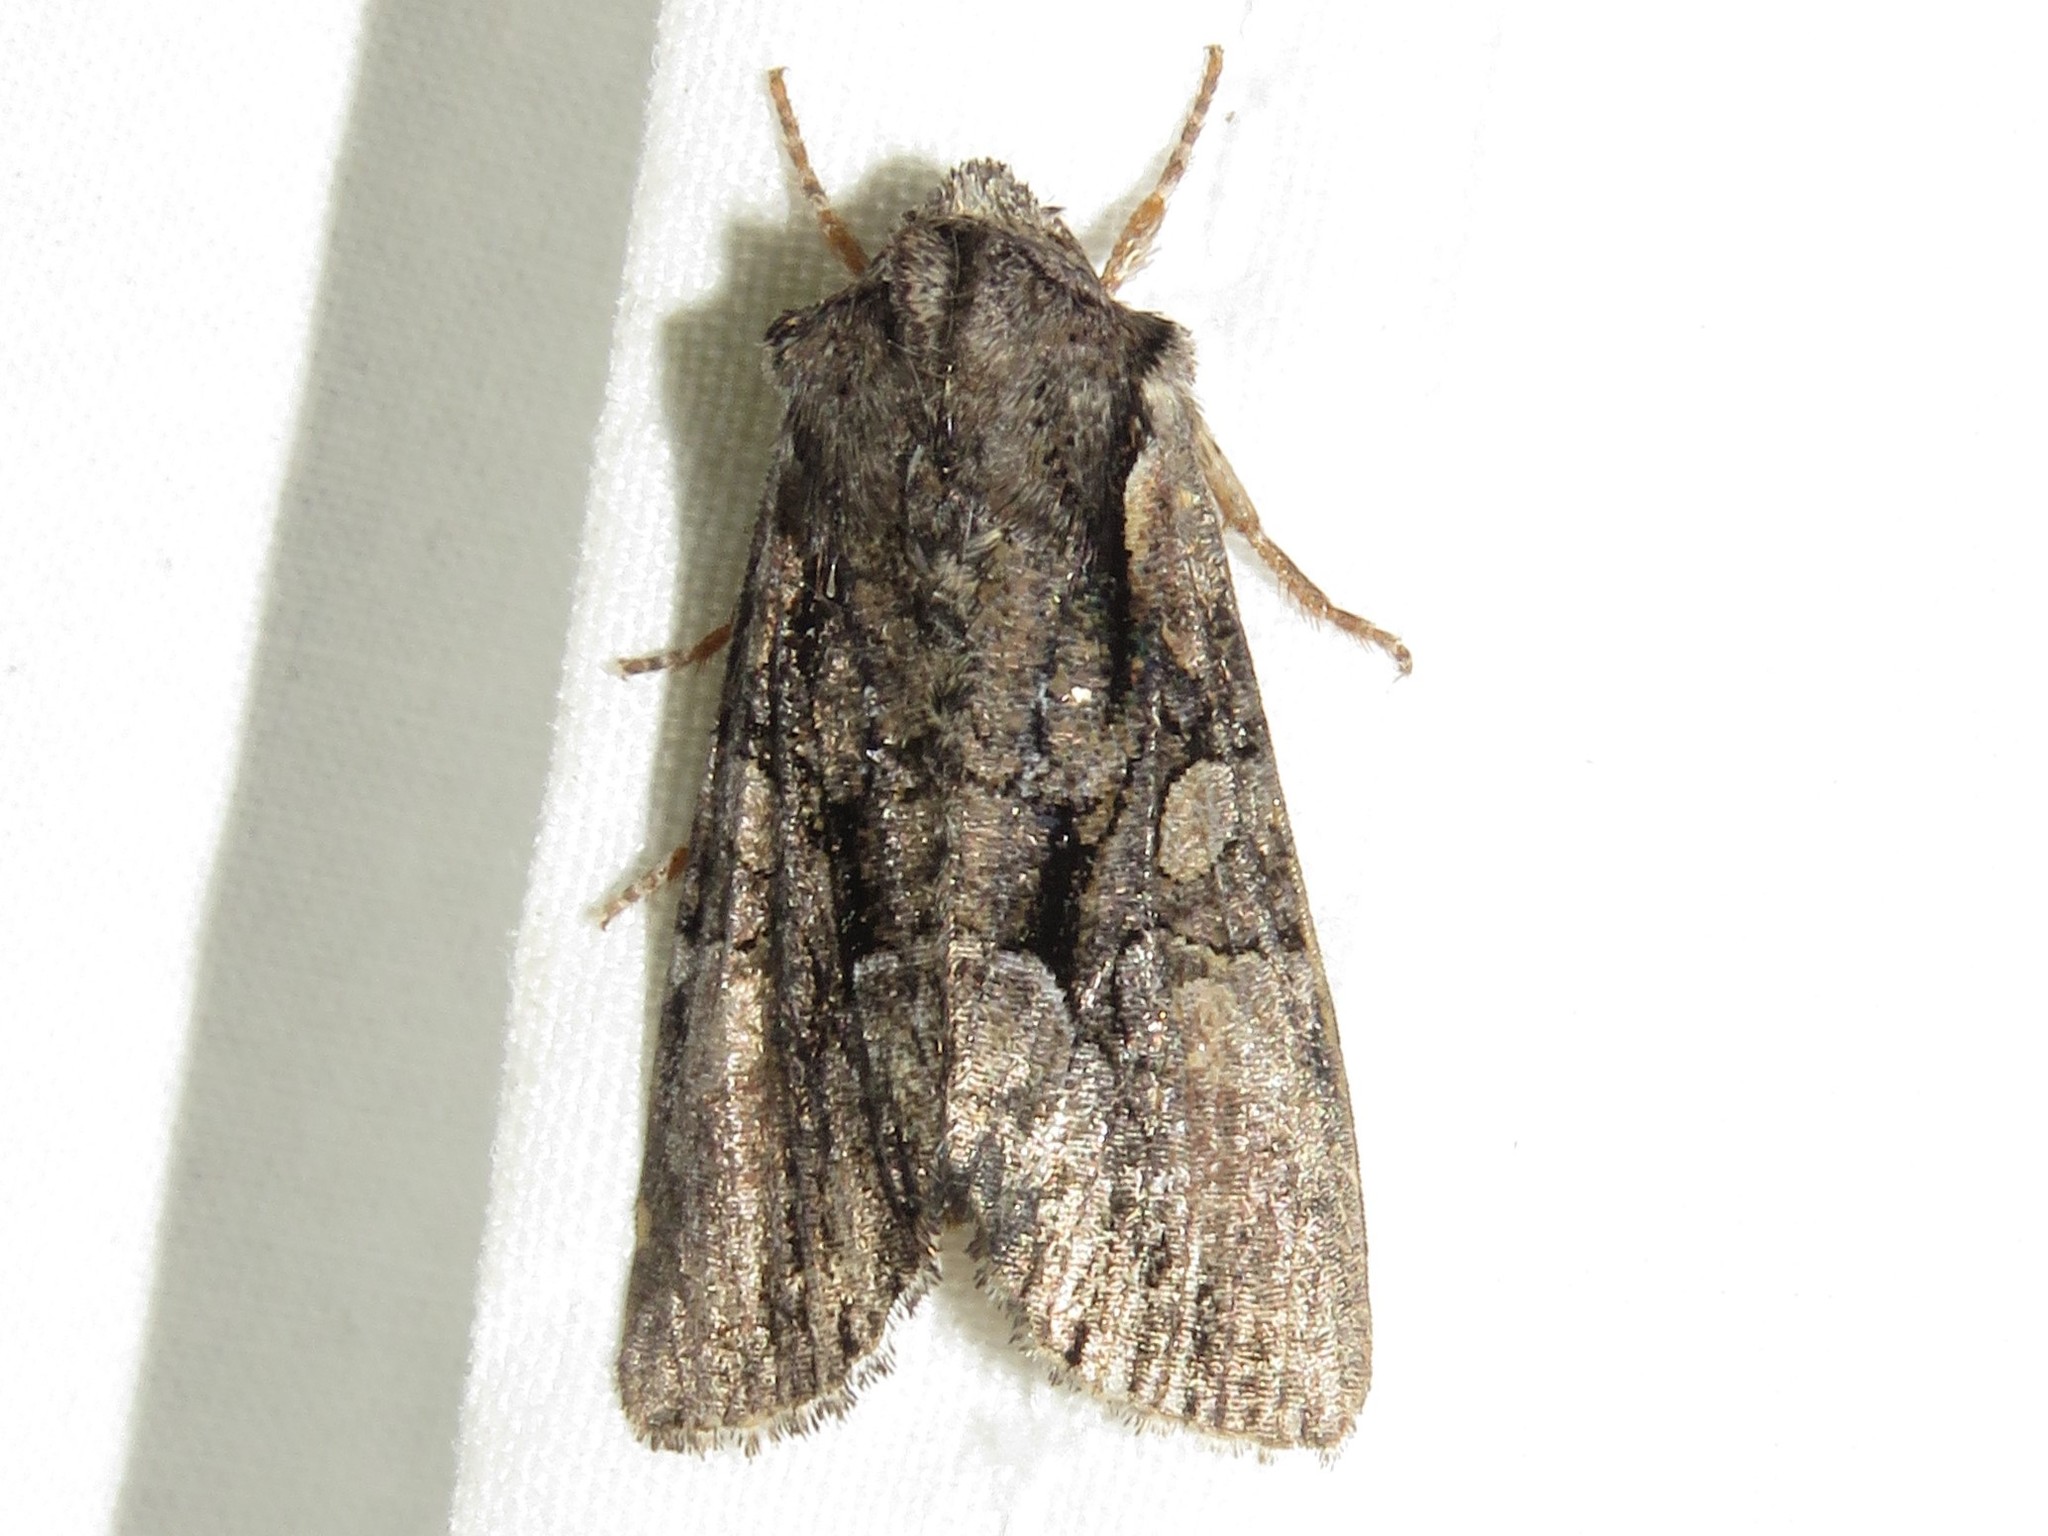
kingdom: Animalia
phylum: Arthropoda
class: Insecta
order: Lepidoptera
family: Noctuidae
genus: Lacanobia
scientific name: Lacanobia subjuncta
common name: Speckled cutworm moth
